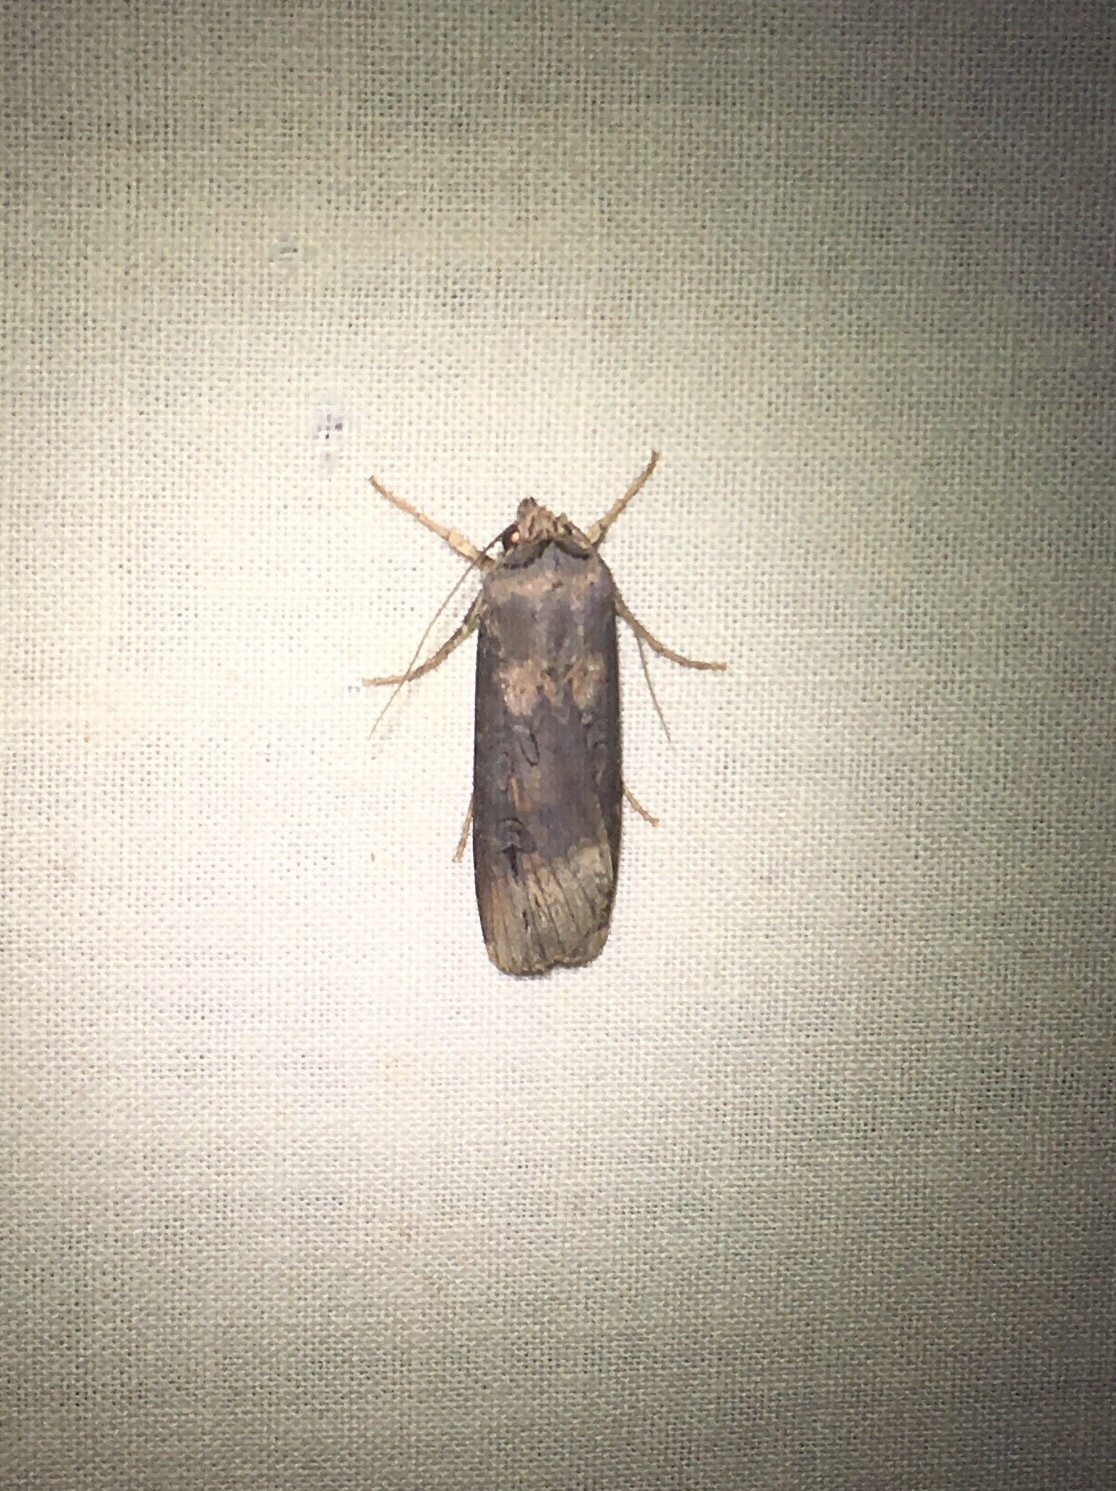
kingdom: Animalia
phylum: Arthropoda
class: Insecta
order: Lepidoptera
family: Noctuidae
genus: Agrotis
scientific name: Agrotis ipsilon
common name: Dark sword-grass
